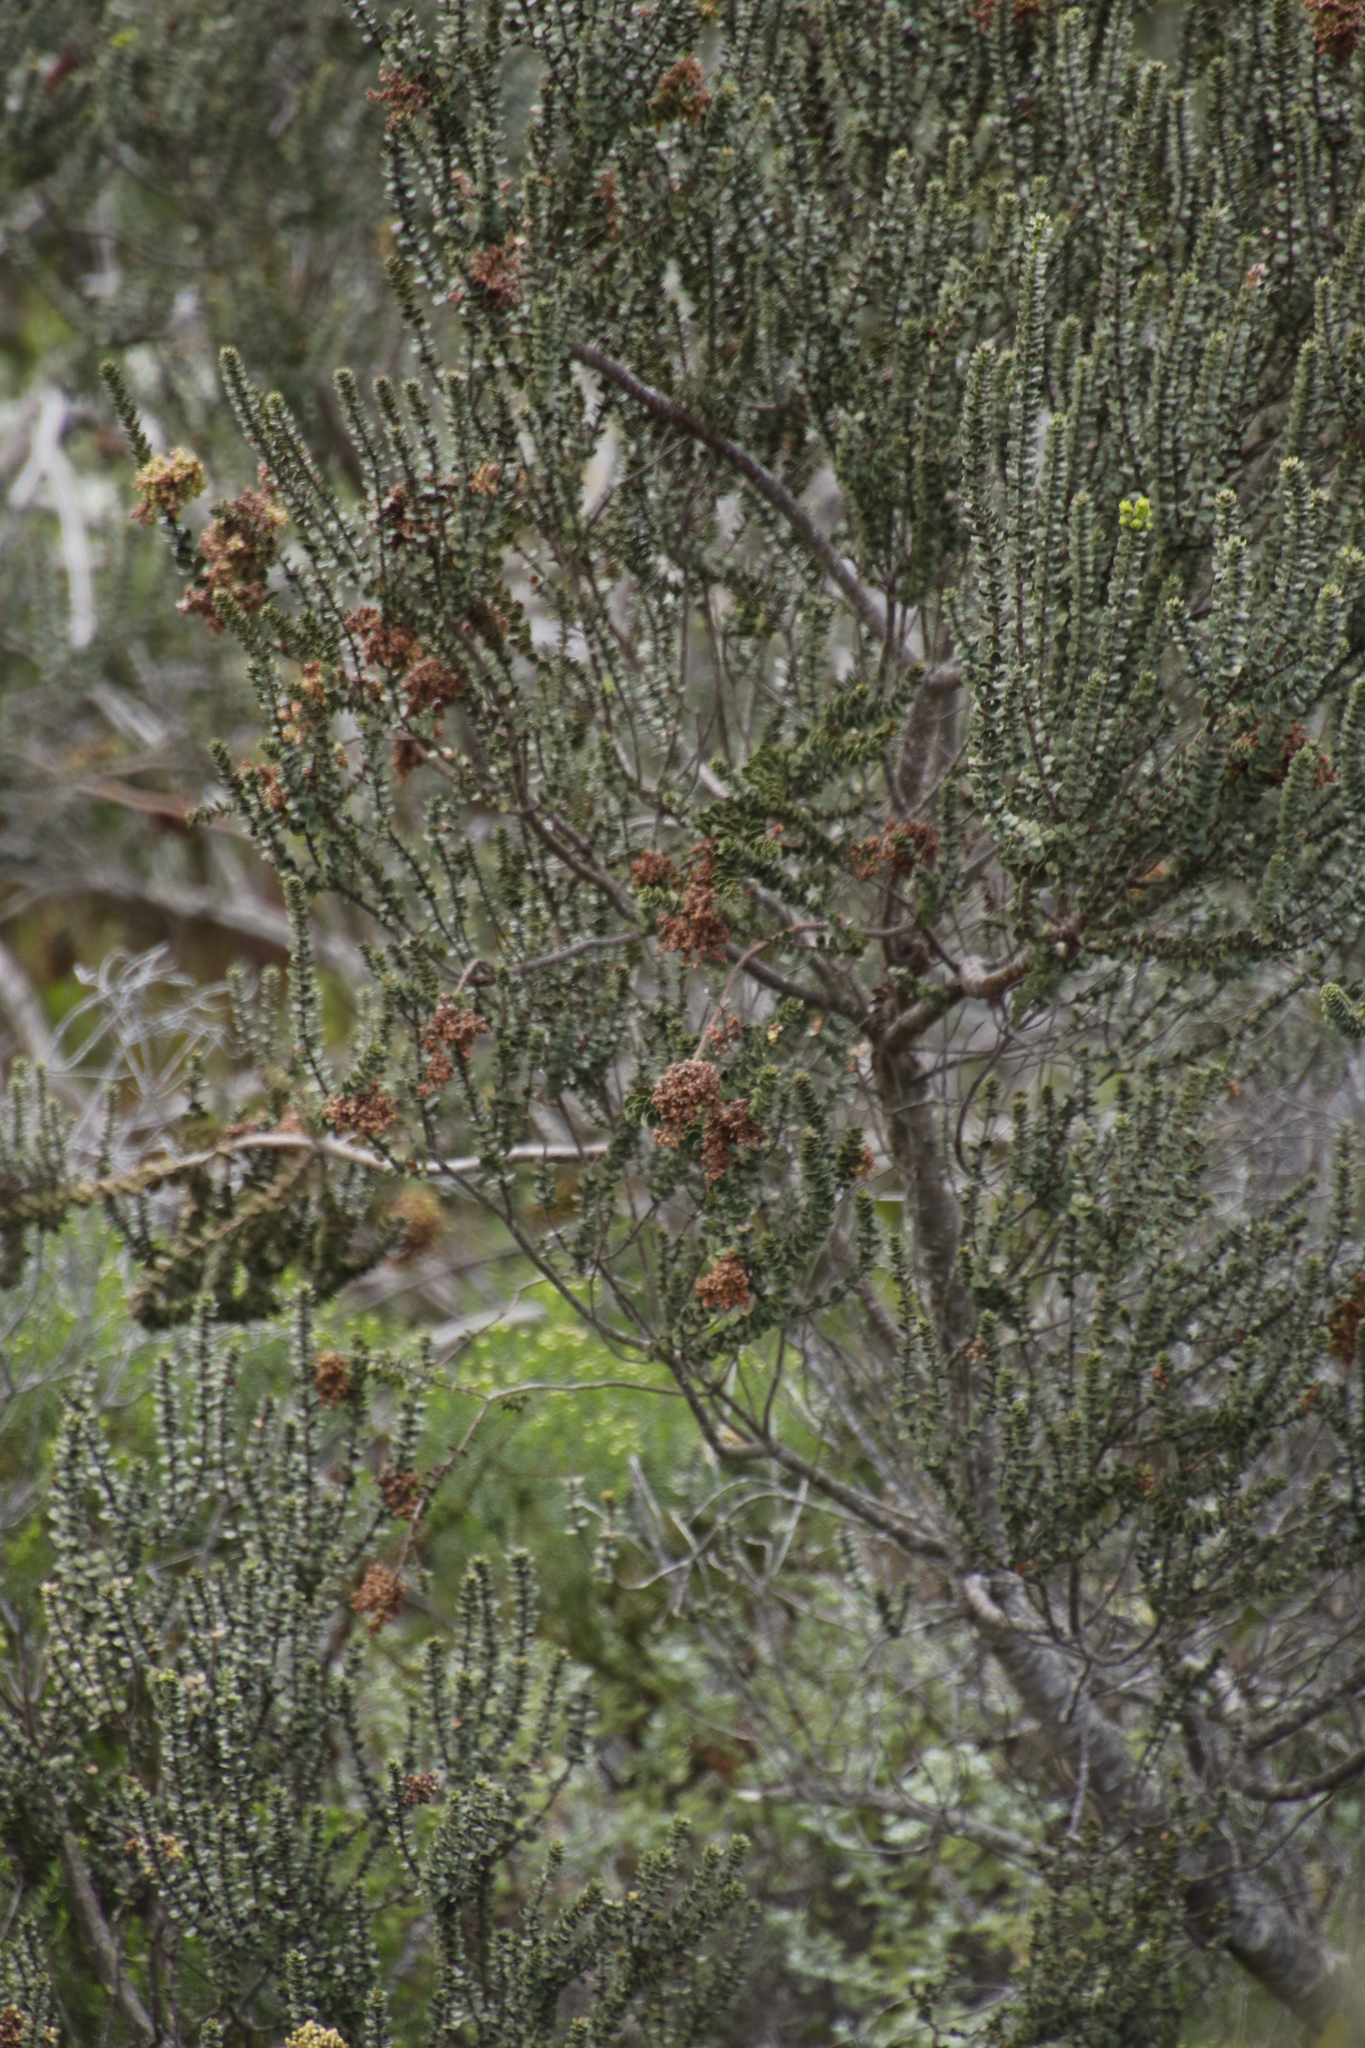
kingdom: Plantae
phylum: Tracheophyta
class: Magnoliopsida
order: Fagales
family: Myricaceae
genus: Morella
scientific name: Morella cordifolia
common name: Waxberry
